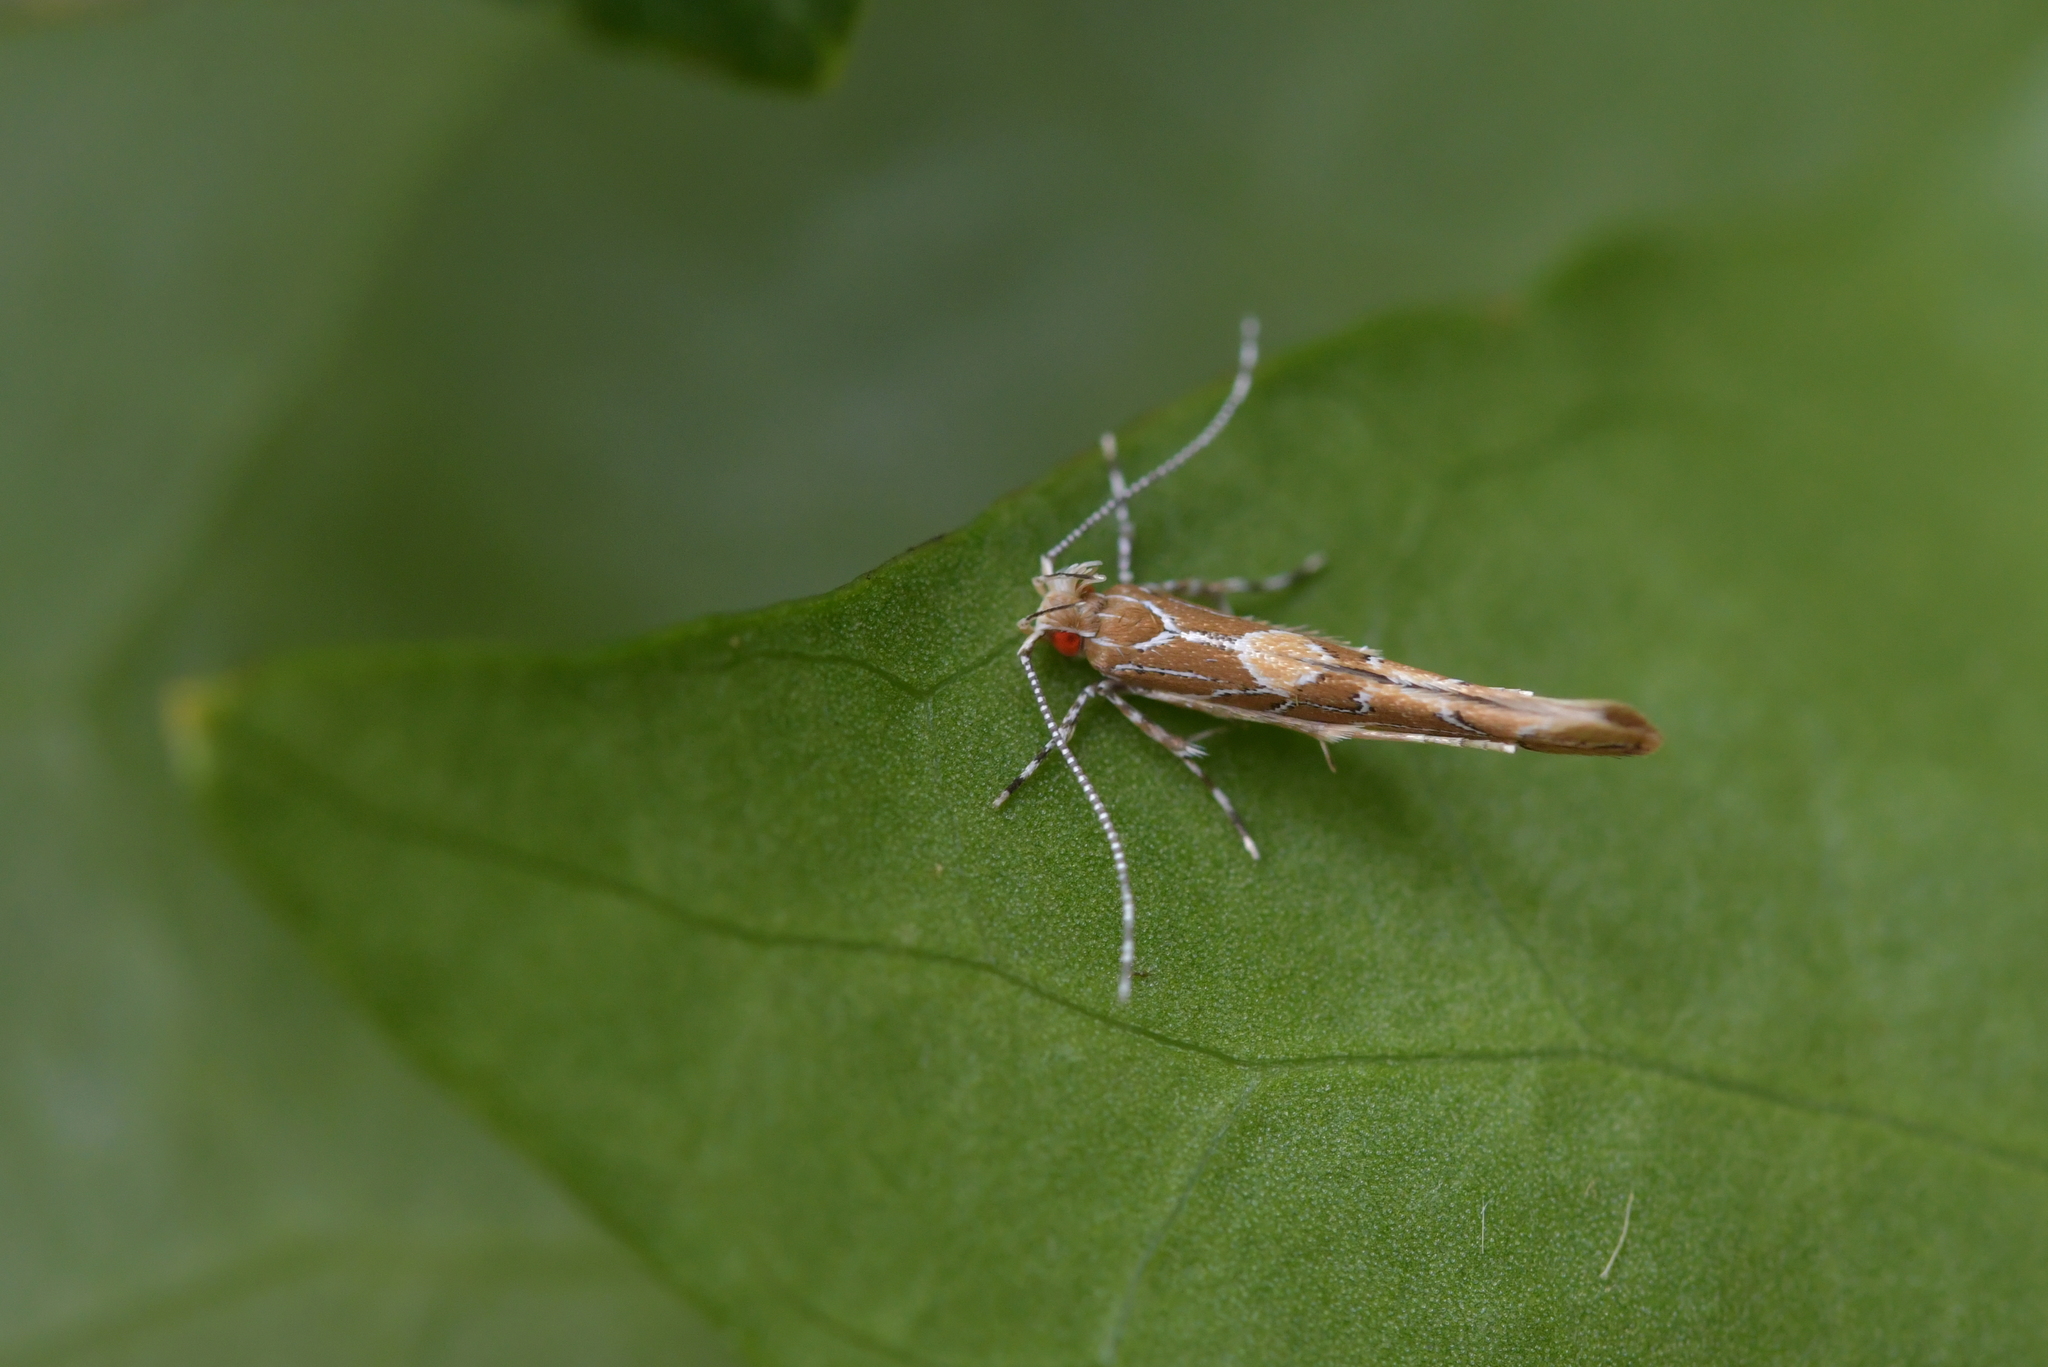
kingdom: Animalia
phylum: Arthropoda
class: Insecta
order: Lepidoptera
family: Cosmopterigidae
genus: Pyroderces
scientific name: Pyroderces apparitella
